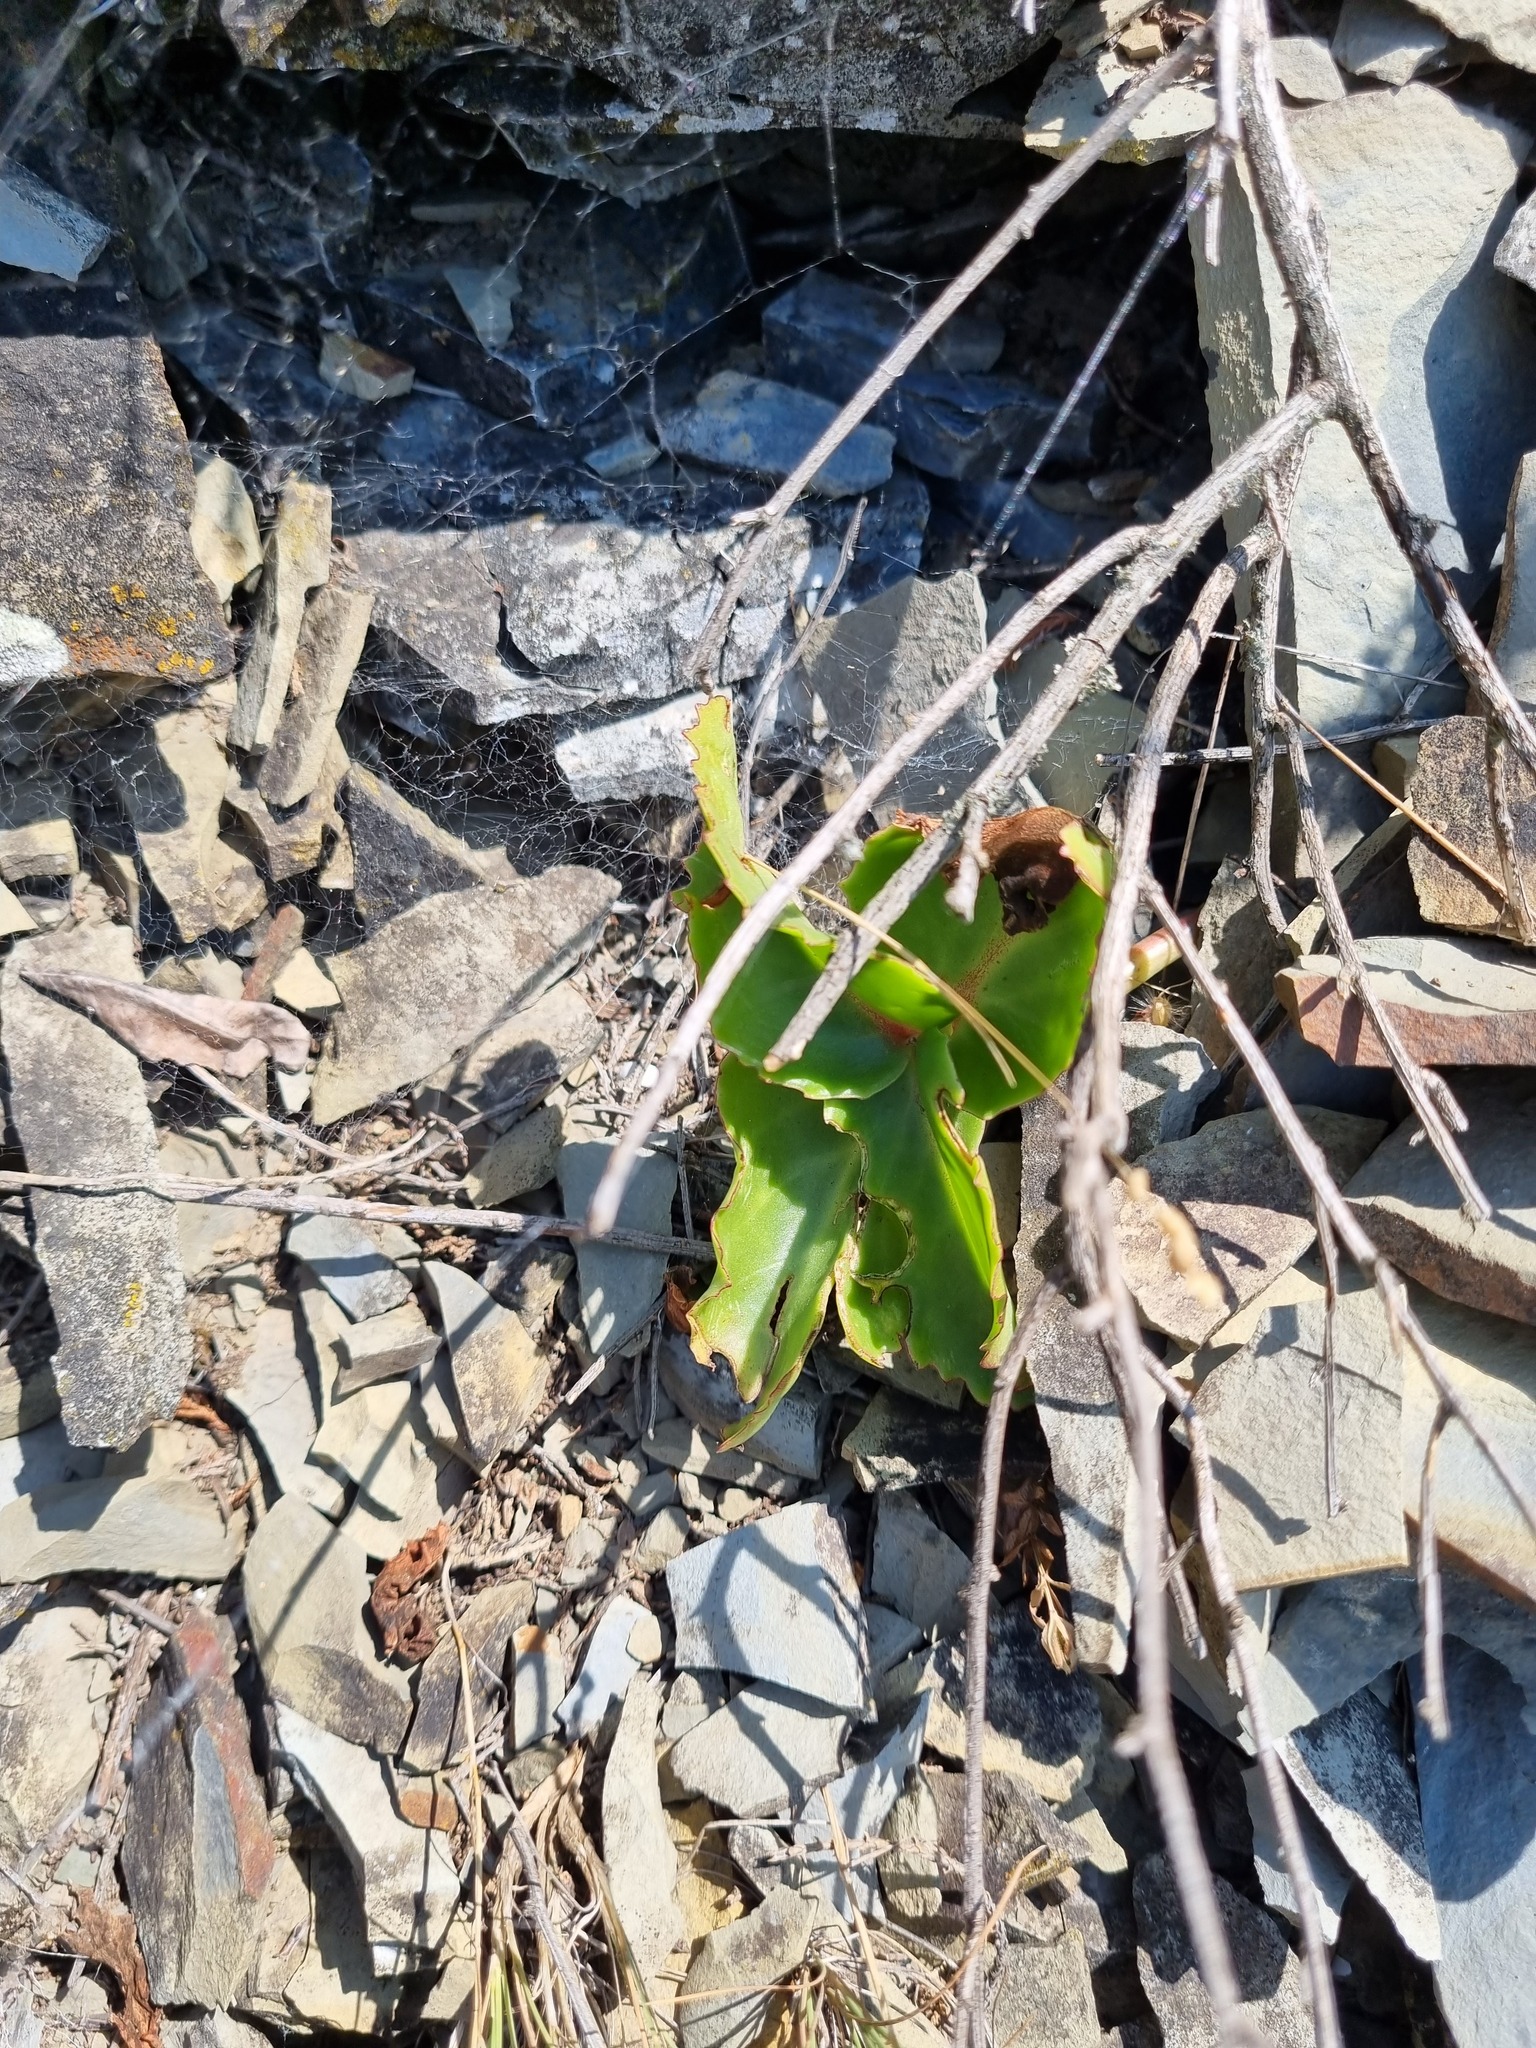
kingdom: Plantae
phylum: Tracheophyta
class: Magnoliopsida
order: Saxifragales
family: Crassulaceae
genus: Hylotelephium
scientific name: Hylotelephium maximum
